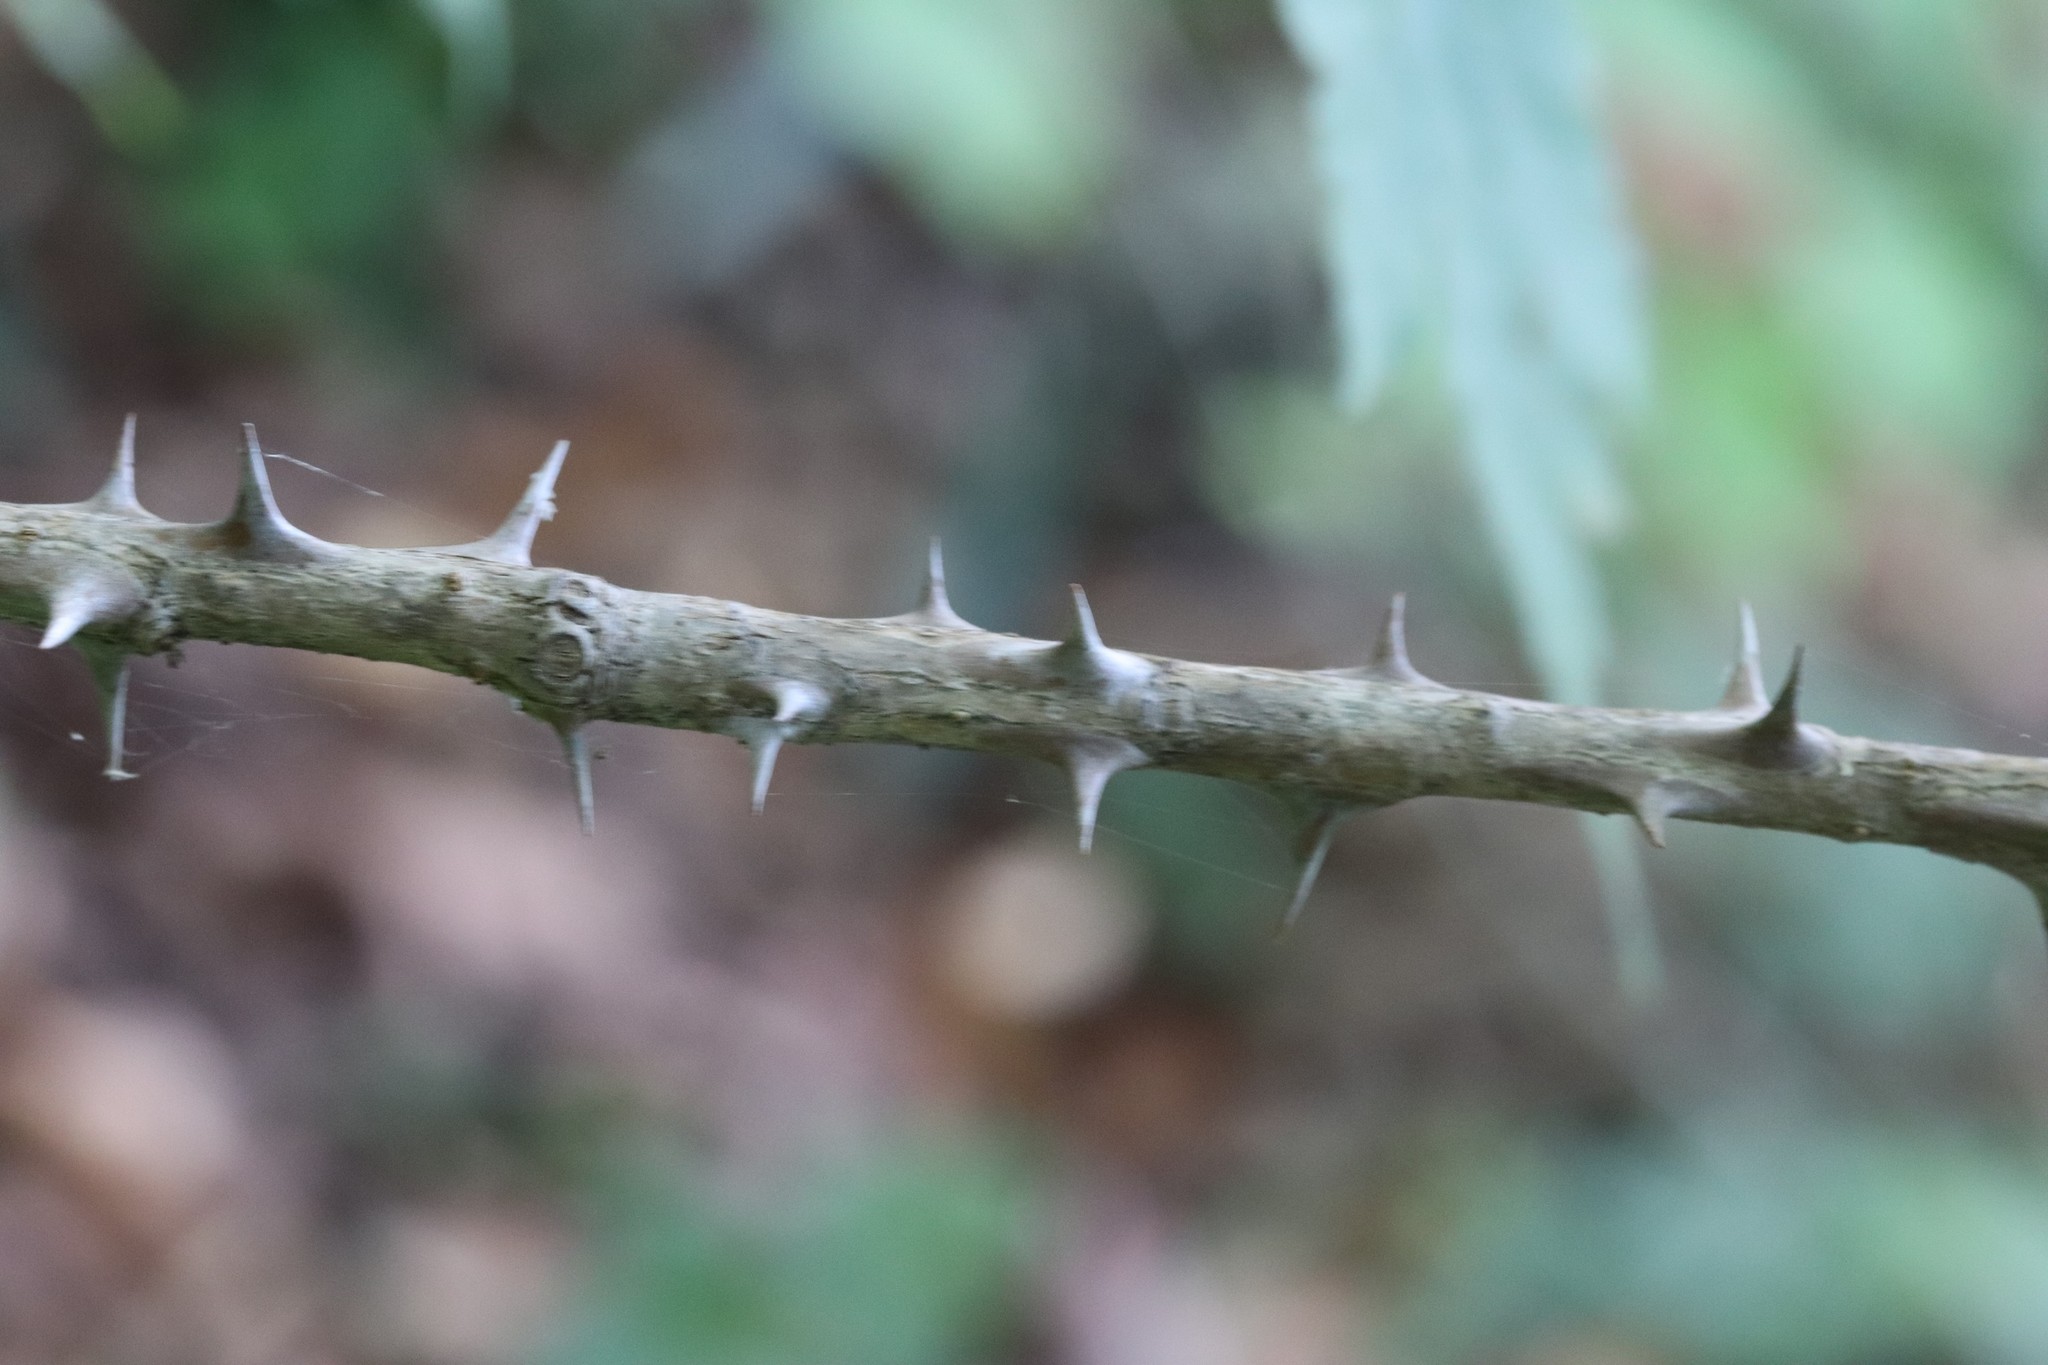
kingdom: Plantae
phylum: Tracheophyta
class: Magnoliopsida
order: Apiales
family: Araliaceae
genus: Kalopanax
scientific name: Kalopanax septemlobus
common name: Castor aralia
